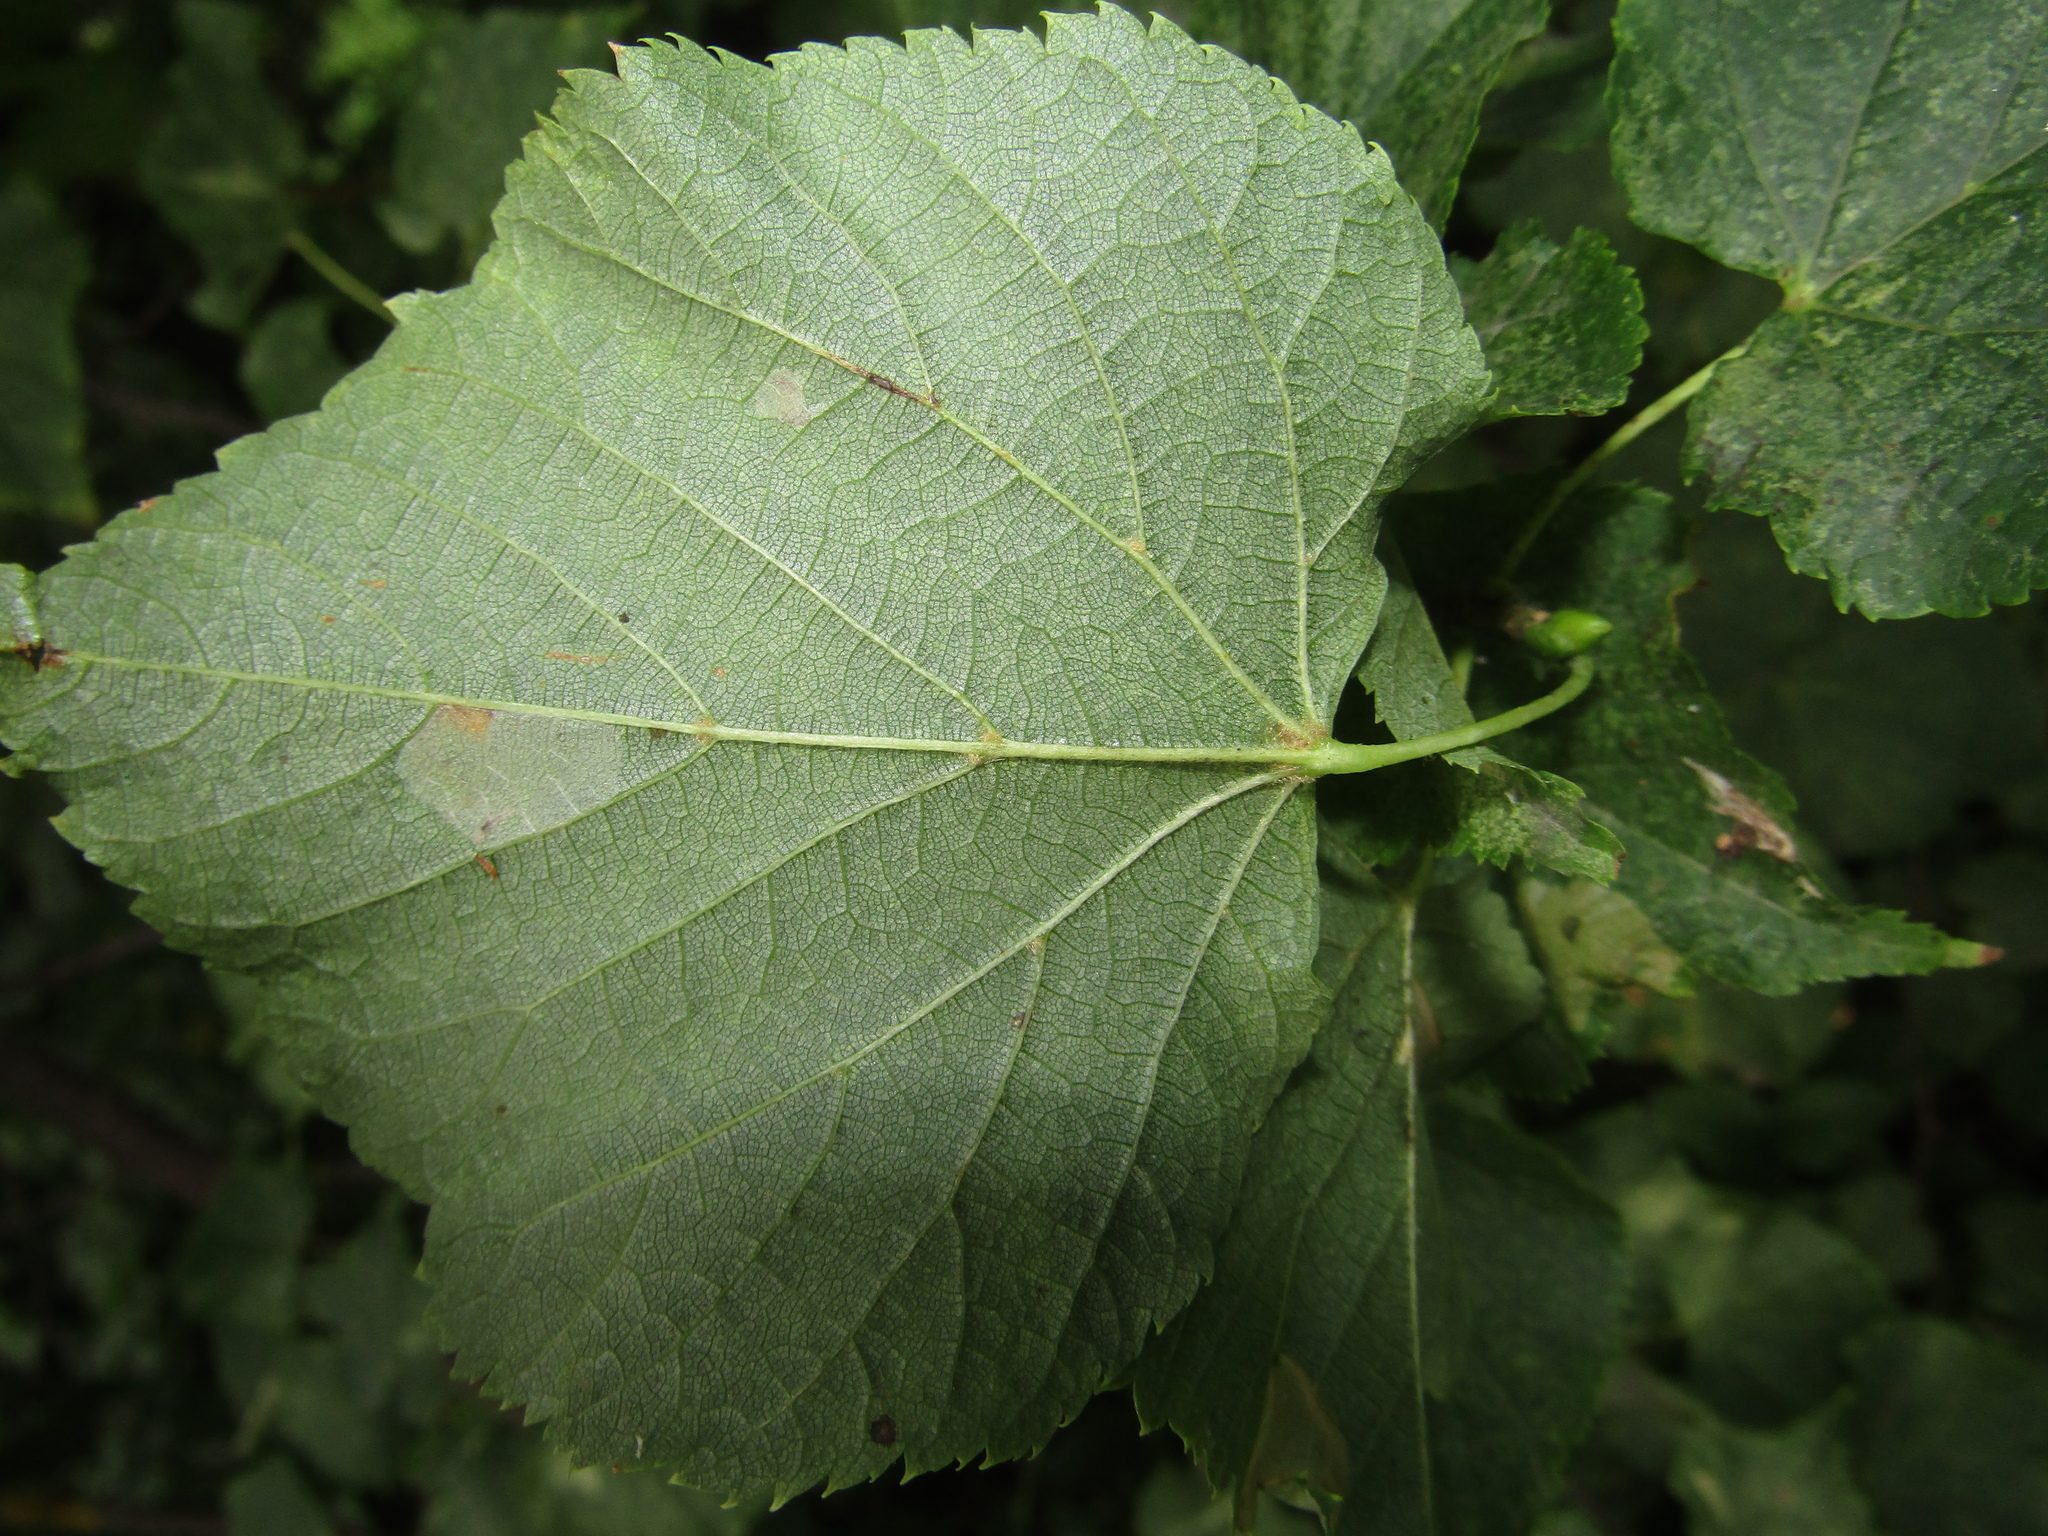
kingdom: Plantae
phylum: Tracheophyta
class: Magnoliopsida
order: Malvales
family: Malvaceae
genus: Tilia
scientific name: Tilia cordata
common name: Small-leaved lime
